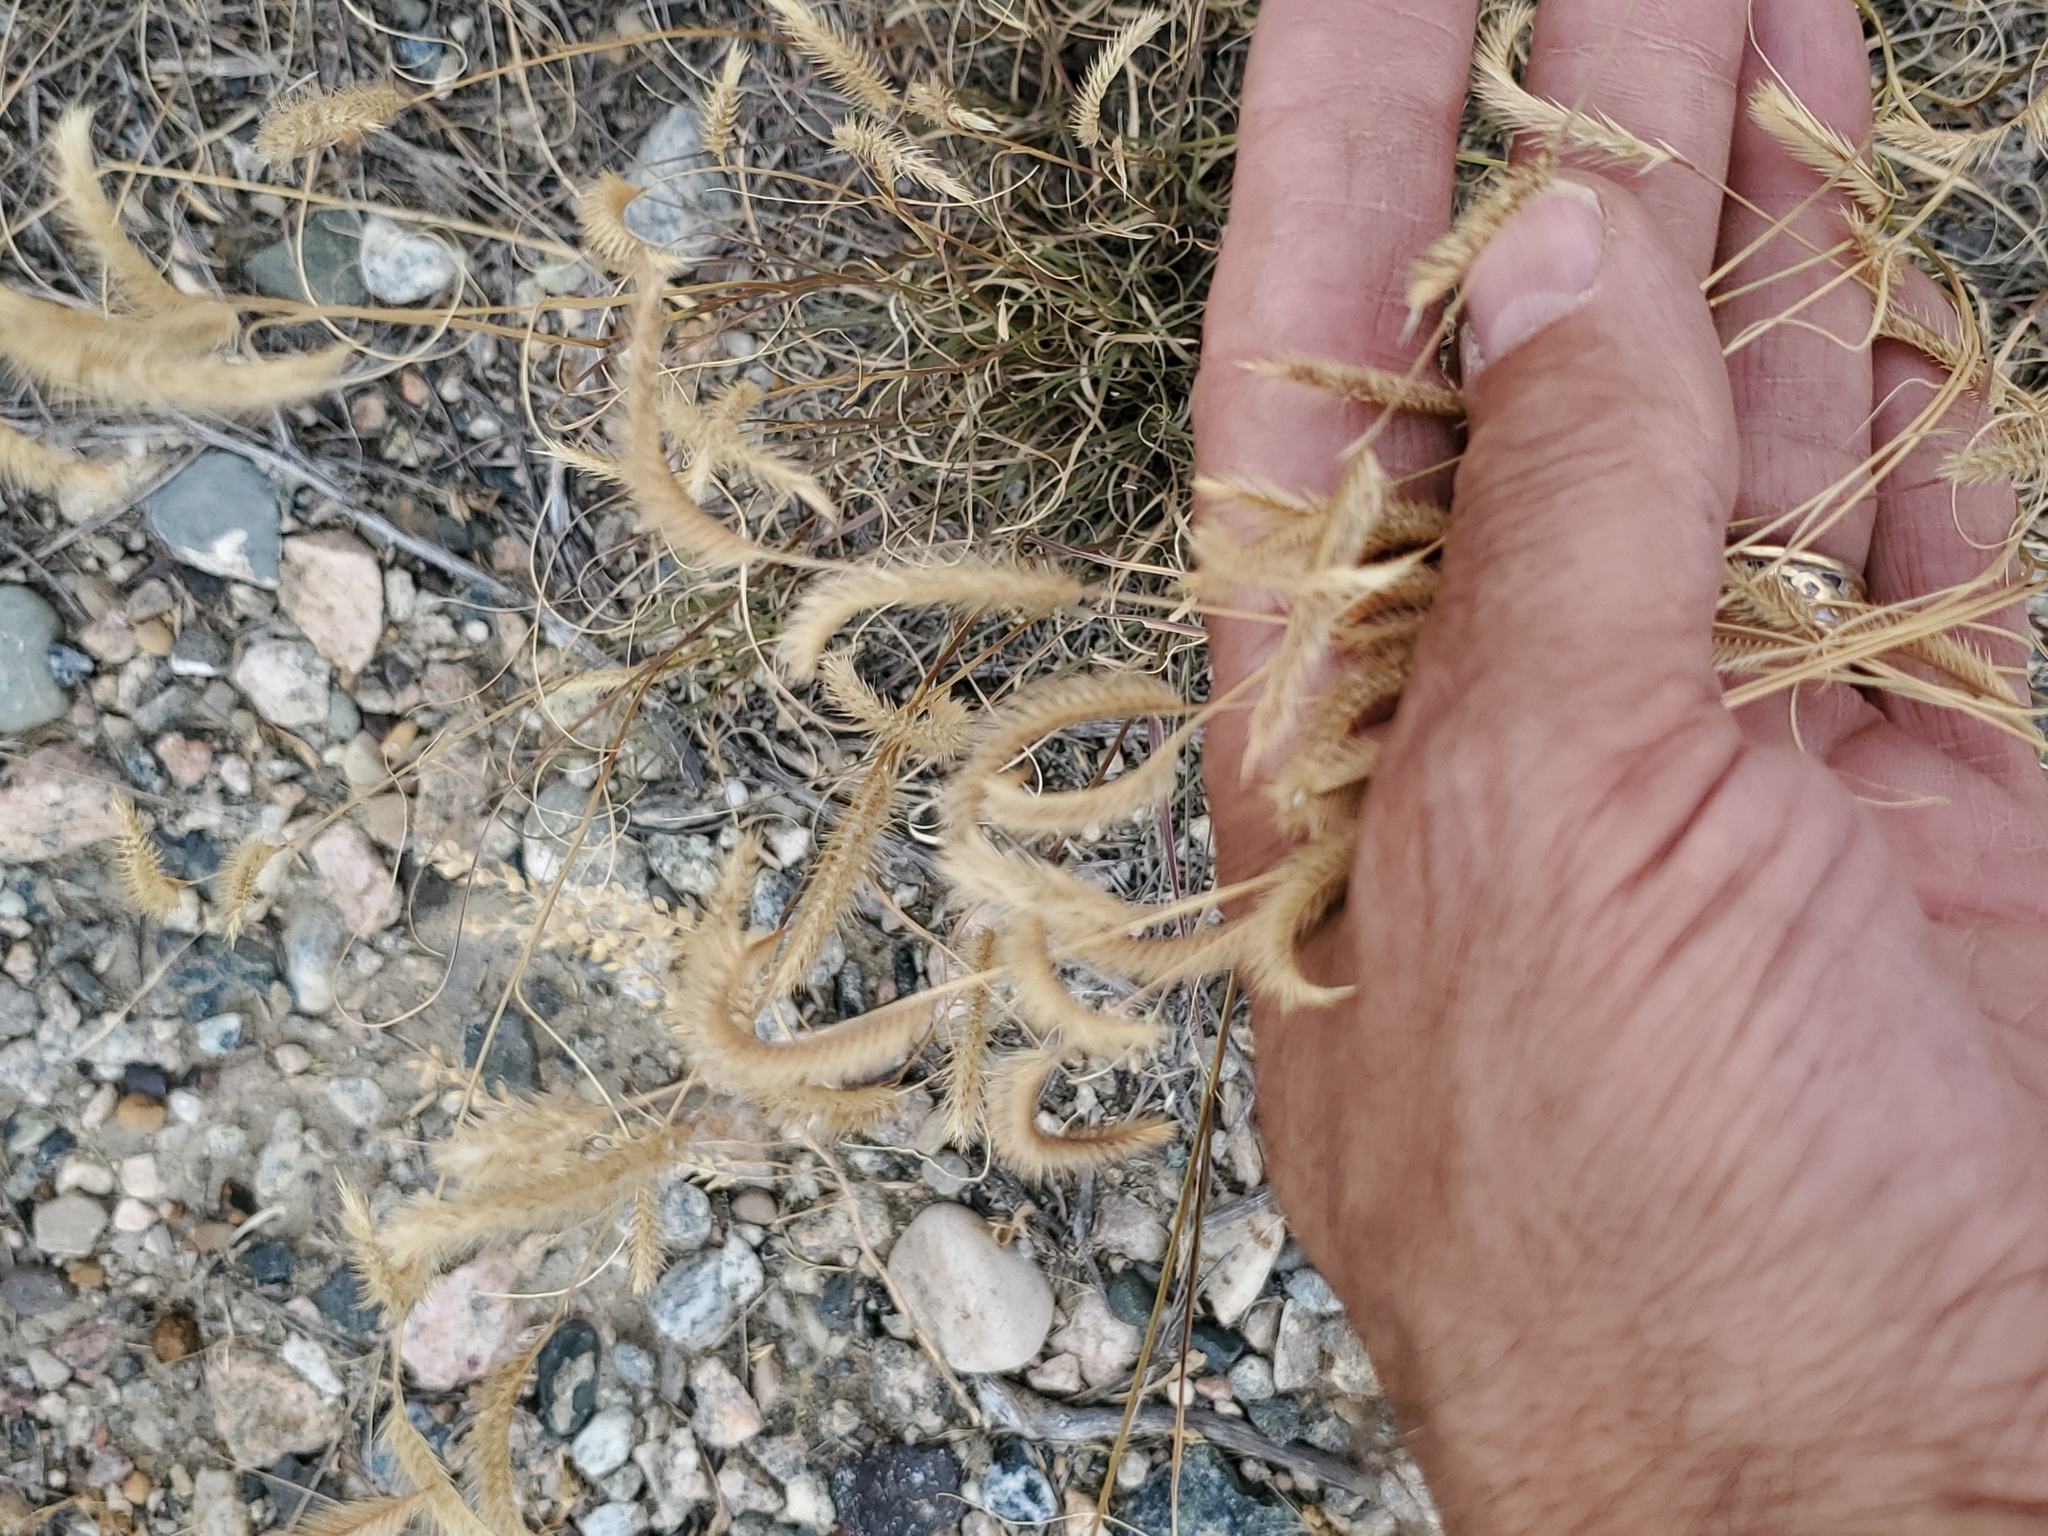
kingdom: Plantae
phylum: Tracheophyta
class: Liliopsida
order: Poales
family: Poaceae
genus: Bouteloua
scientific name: Bouteloua gracilis
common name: Blue grama
